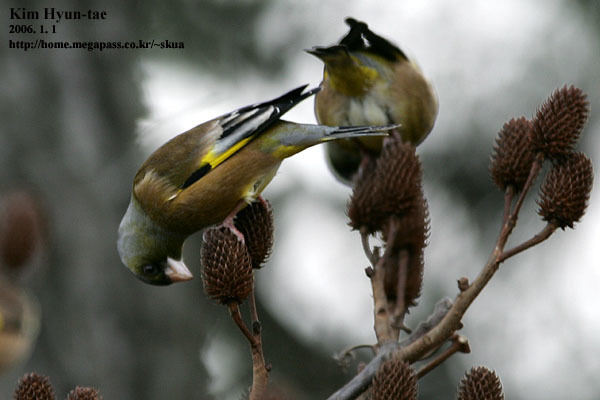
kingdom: Plantae
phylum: Tracheophyta
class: Liliopsida
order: Poales
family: Poaceae
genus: Chloris
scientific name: Chloris sinica
